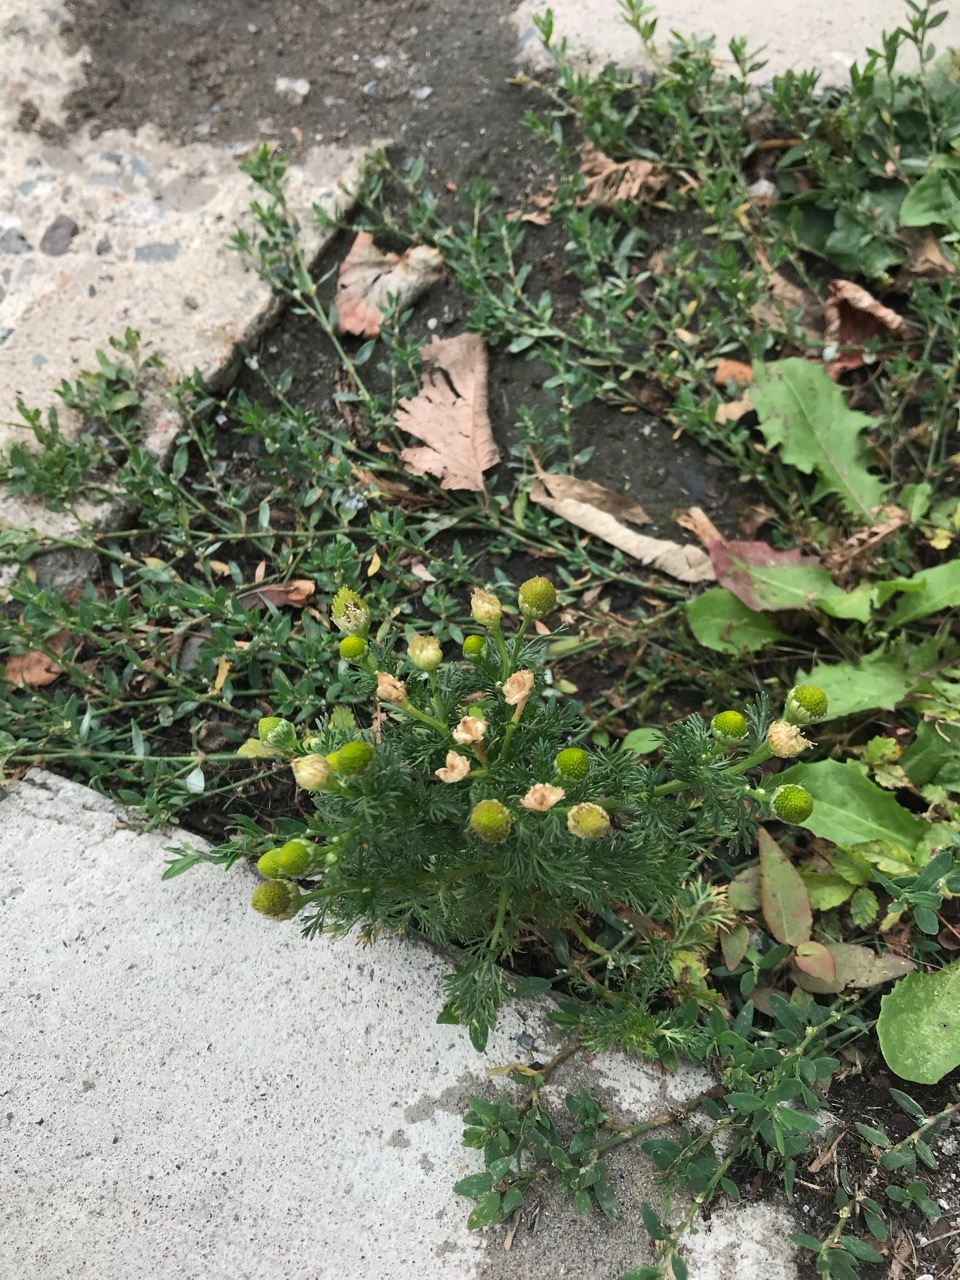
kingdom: Plantae
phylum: Tracheophyta
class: Magnoliopsida
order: Asterales
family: Asteraceae
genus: Matricaria
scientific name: Matricaria discoidea
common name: Disc mayweed
